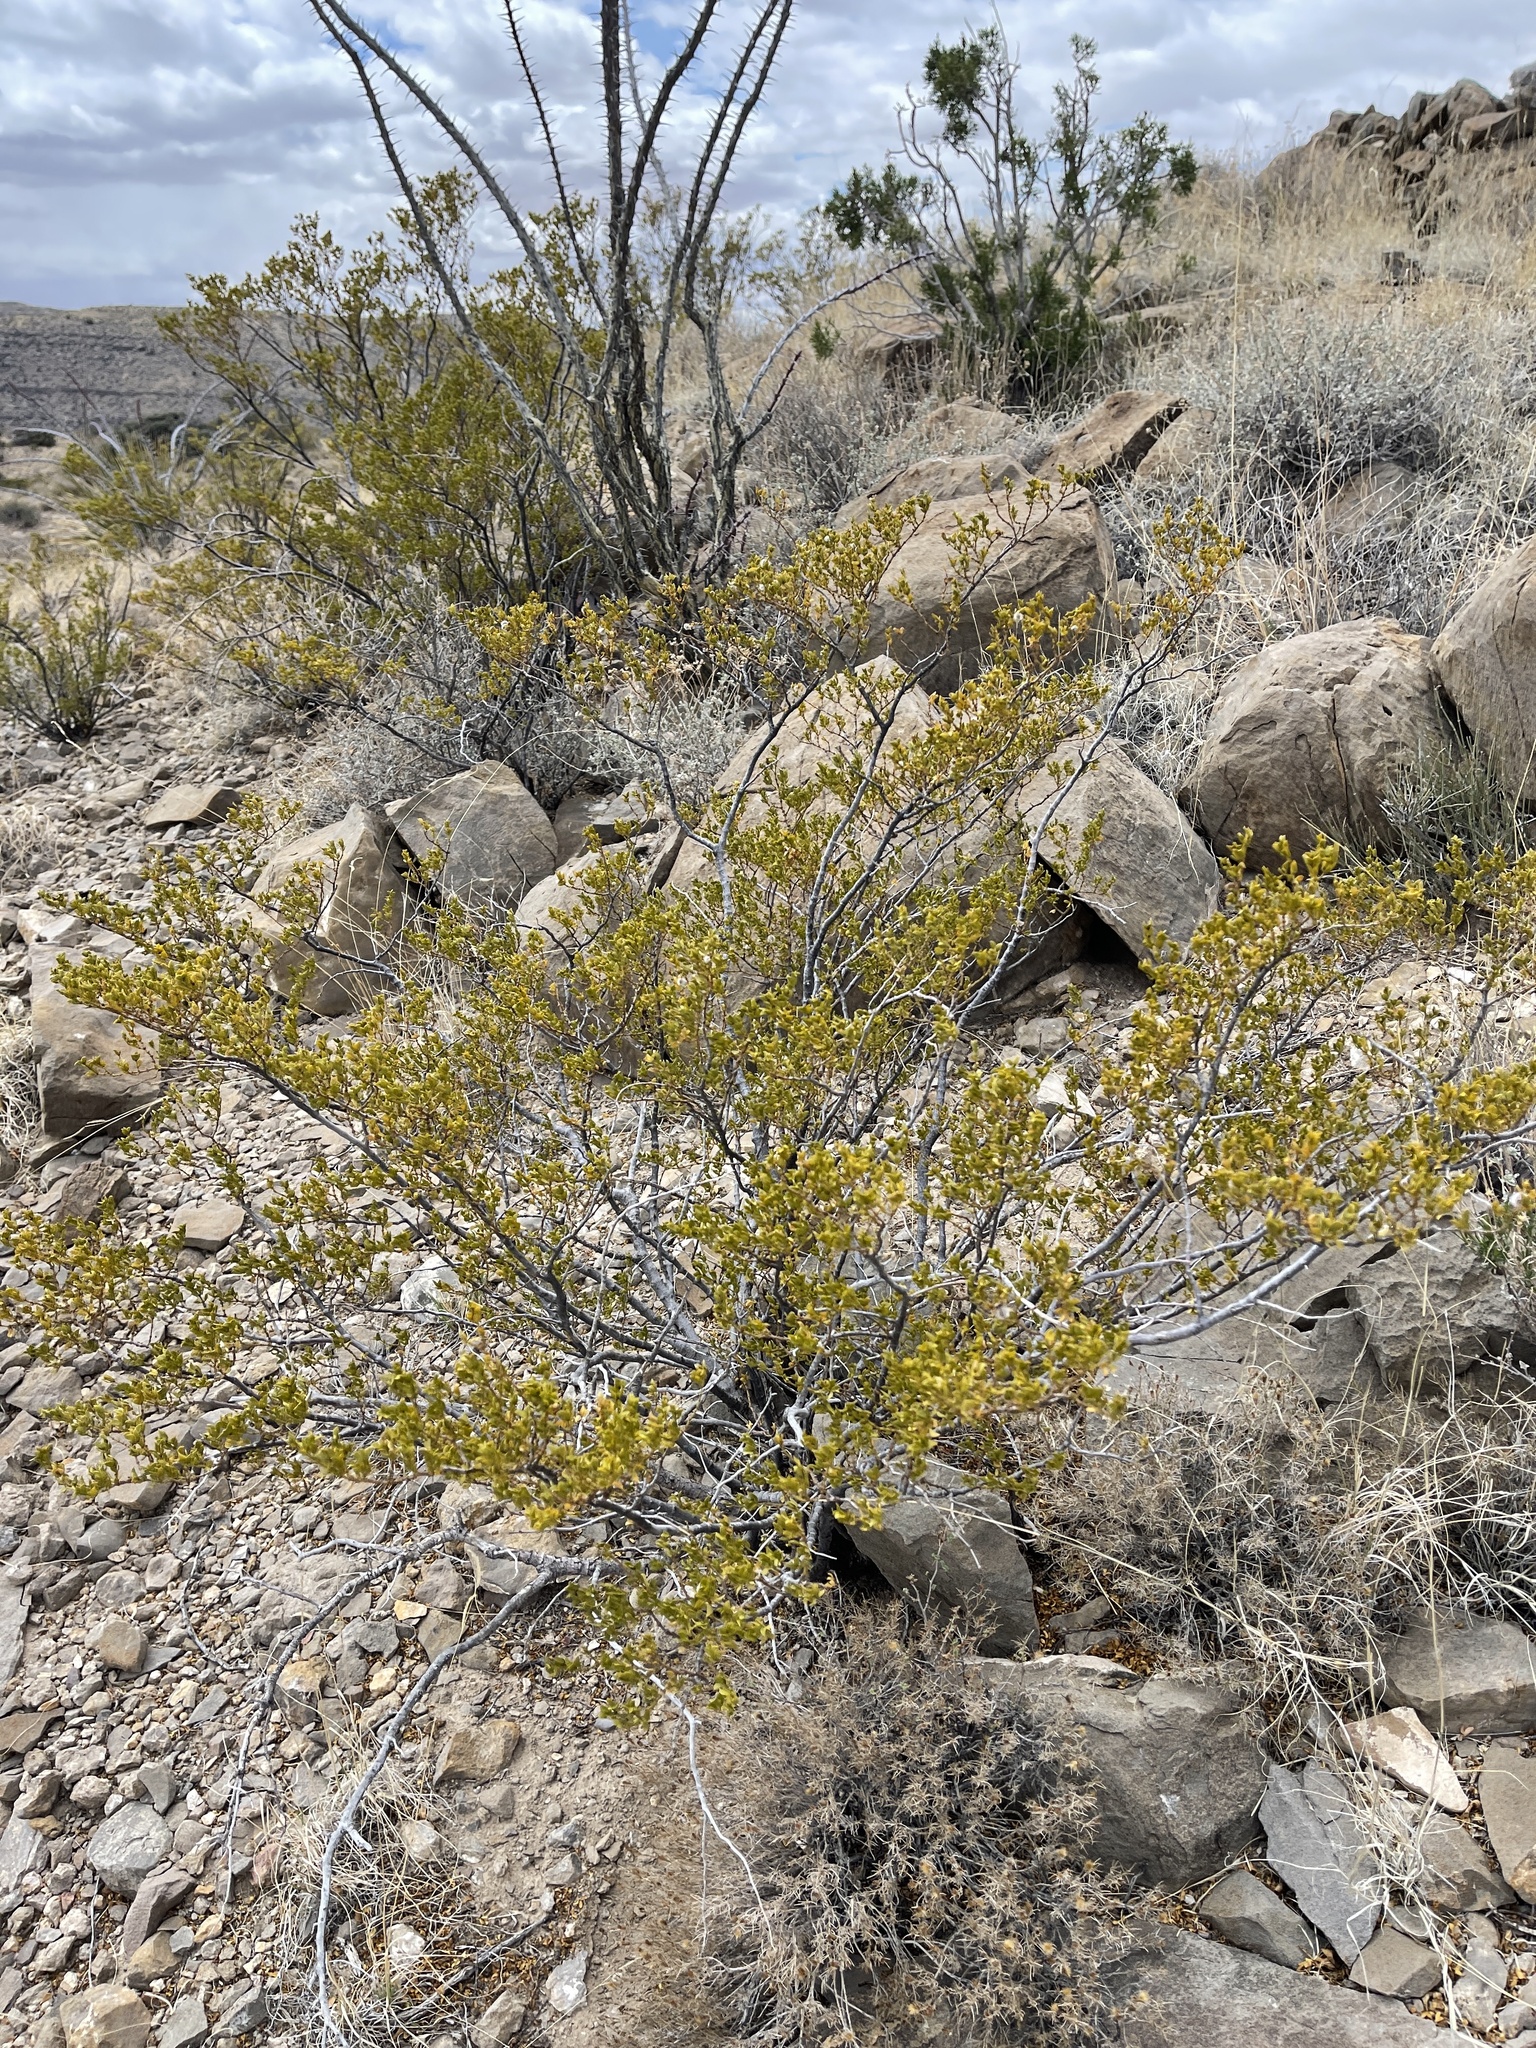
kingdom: Plantae
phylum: Tracheophyta
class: Magnoliopsida
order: Zygophyllales
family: Zygophyllaceae
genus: Larrea
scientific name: Larrea tridentata
